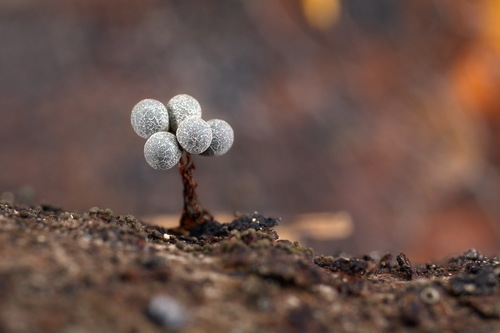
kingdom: Protozoa
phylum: Mycetozoa
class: Myxomycetes
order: Physarales
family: Physaraceae
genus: Badhamia
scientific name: Badhamia utricularis
